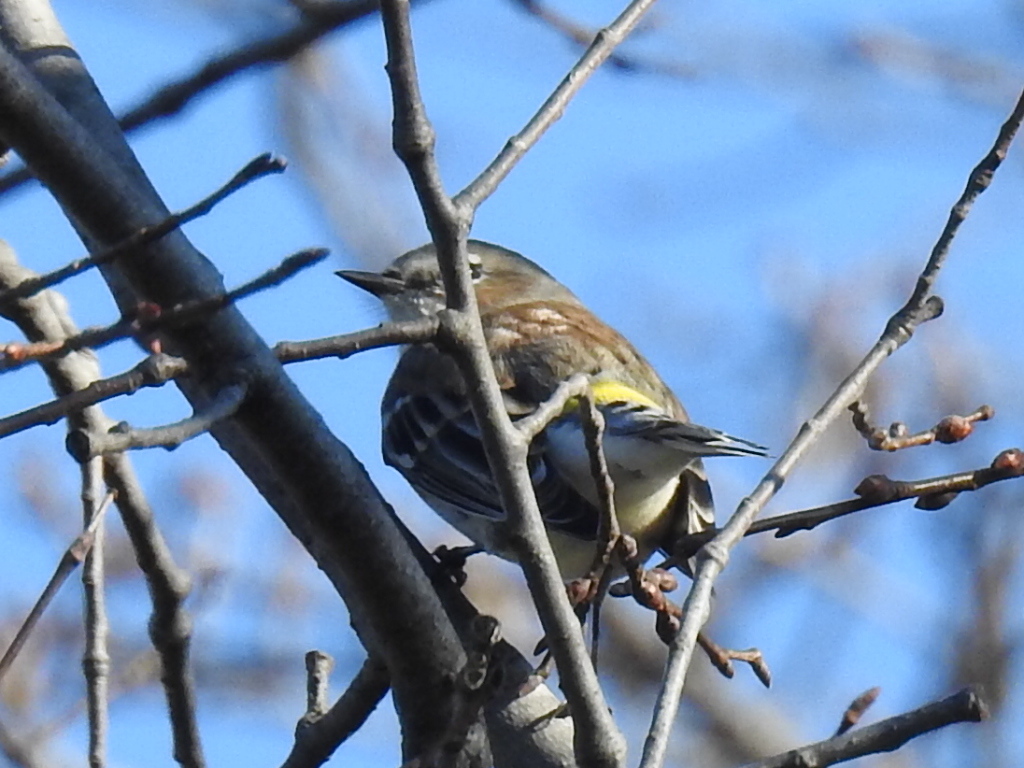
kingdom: Animalia
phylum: Chordata
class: Aves
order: Passeriformes
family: Parulidae
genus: Setophaga
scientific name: Setophaga coronata
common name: Myrtle warbler
